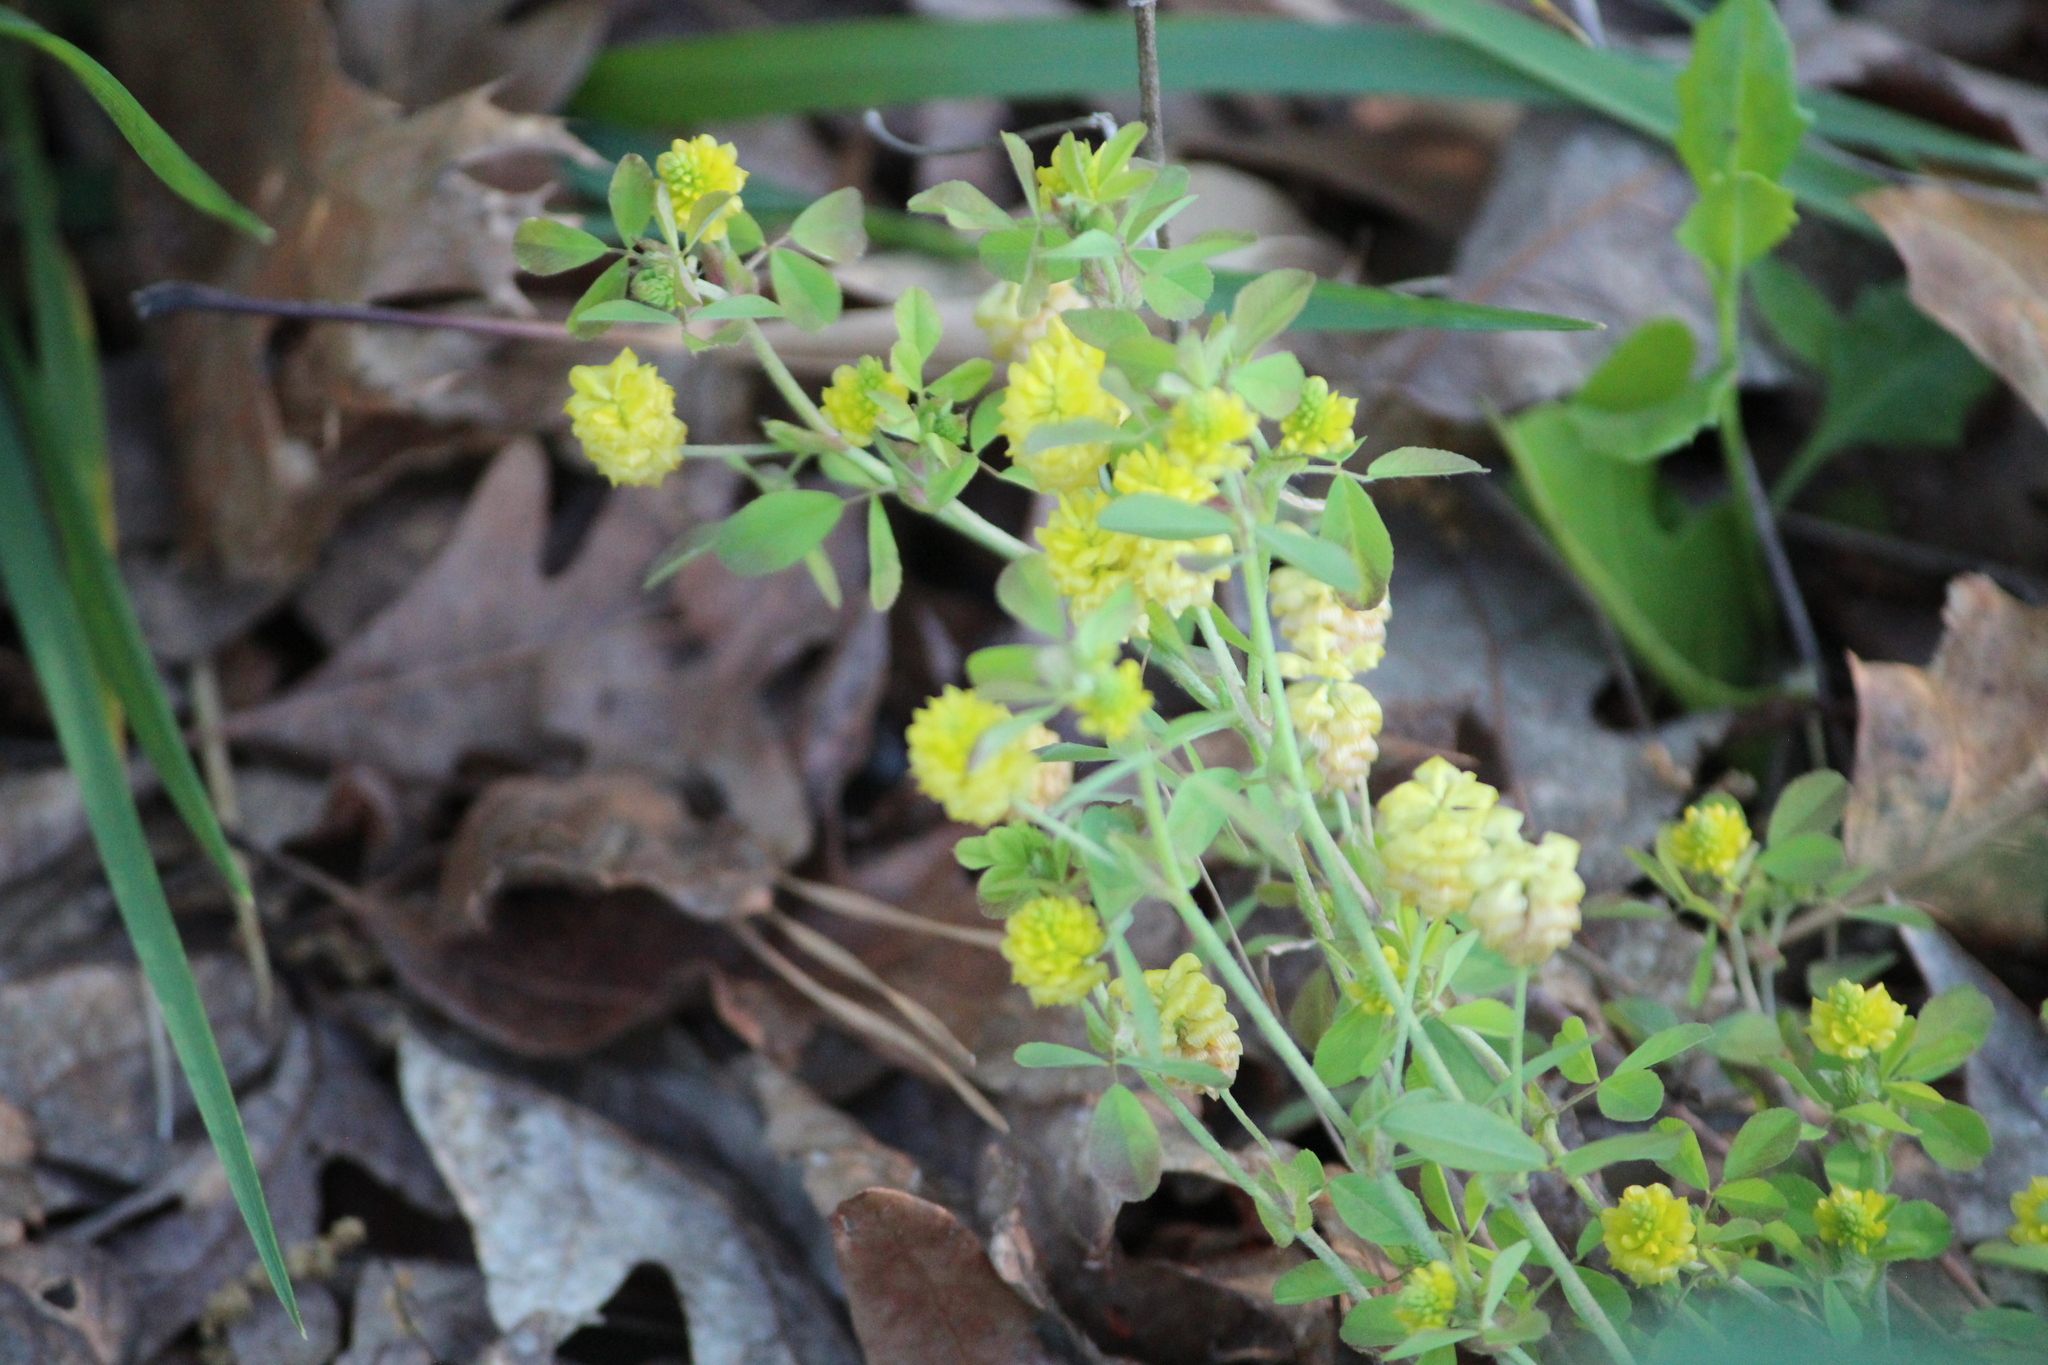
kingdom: Plantae
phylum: Tracheophyta
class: Magnoliopsida
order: Fabales
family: Fabaceae
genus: Trifolium
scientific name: Trifolium campestre
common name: Field clover
